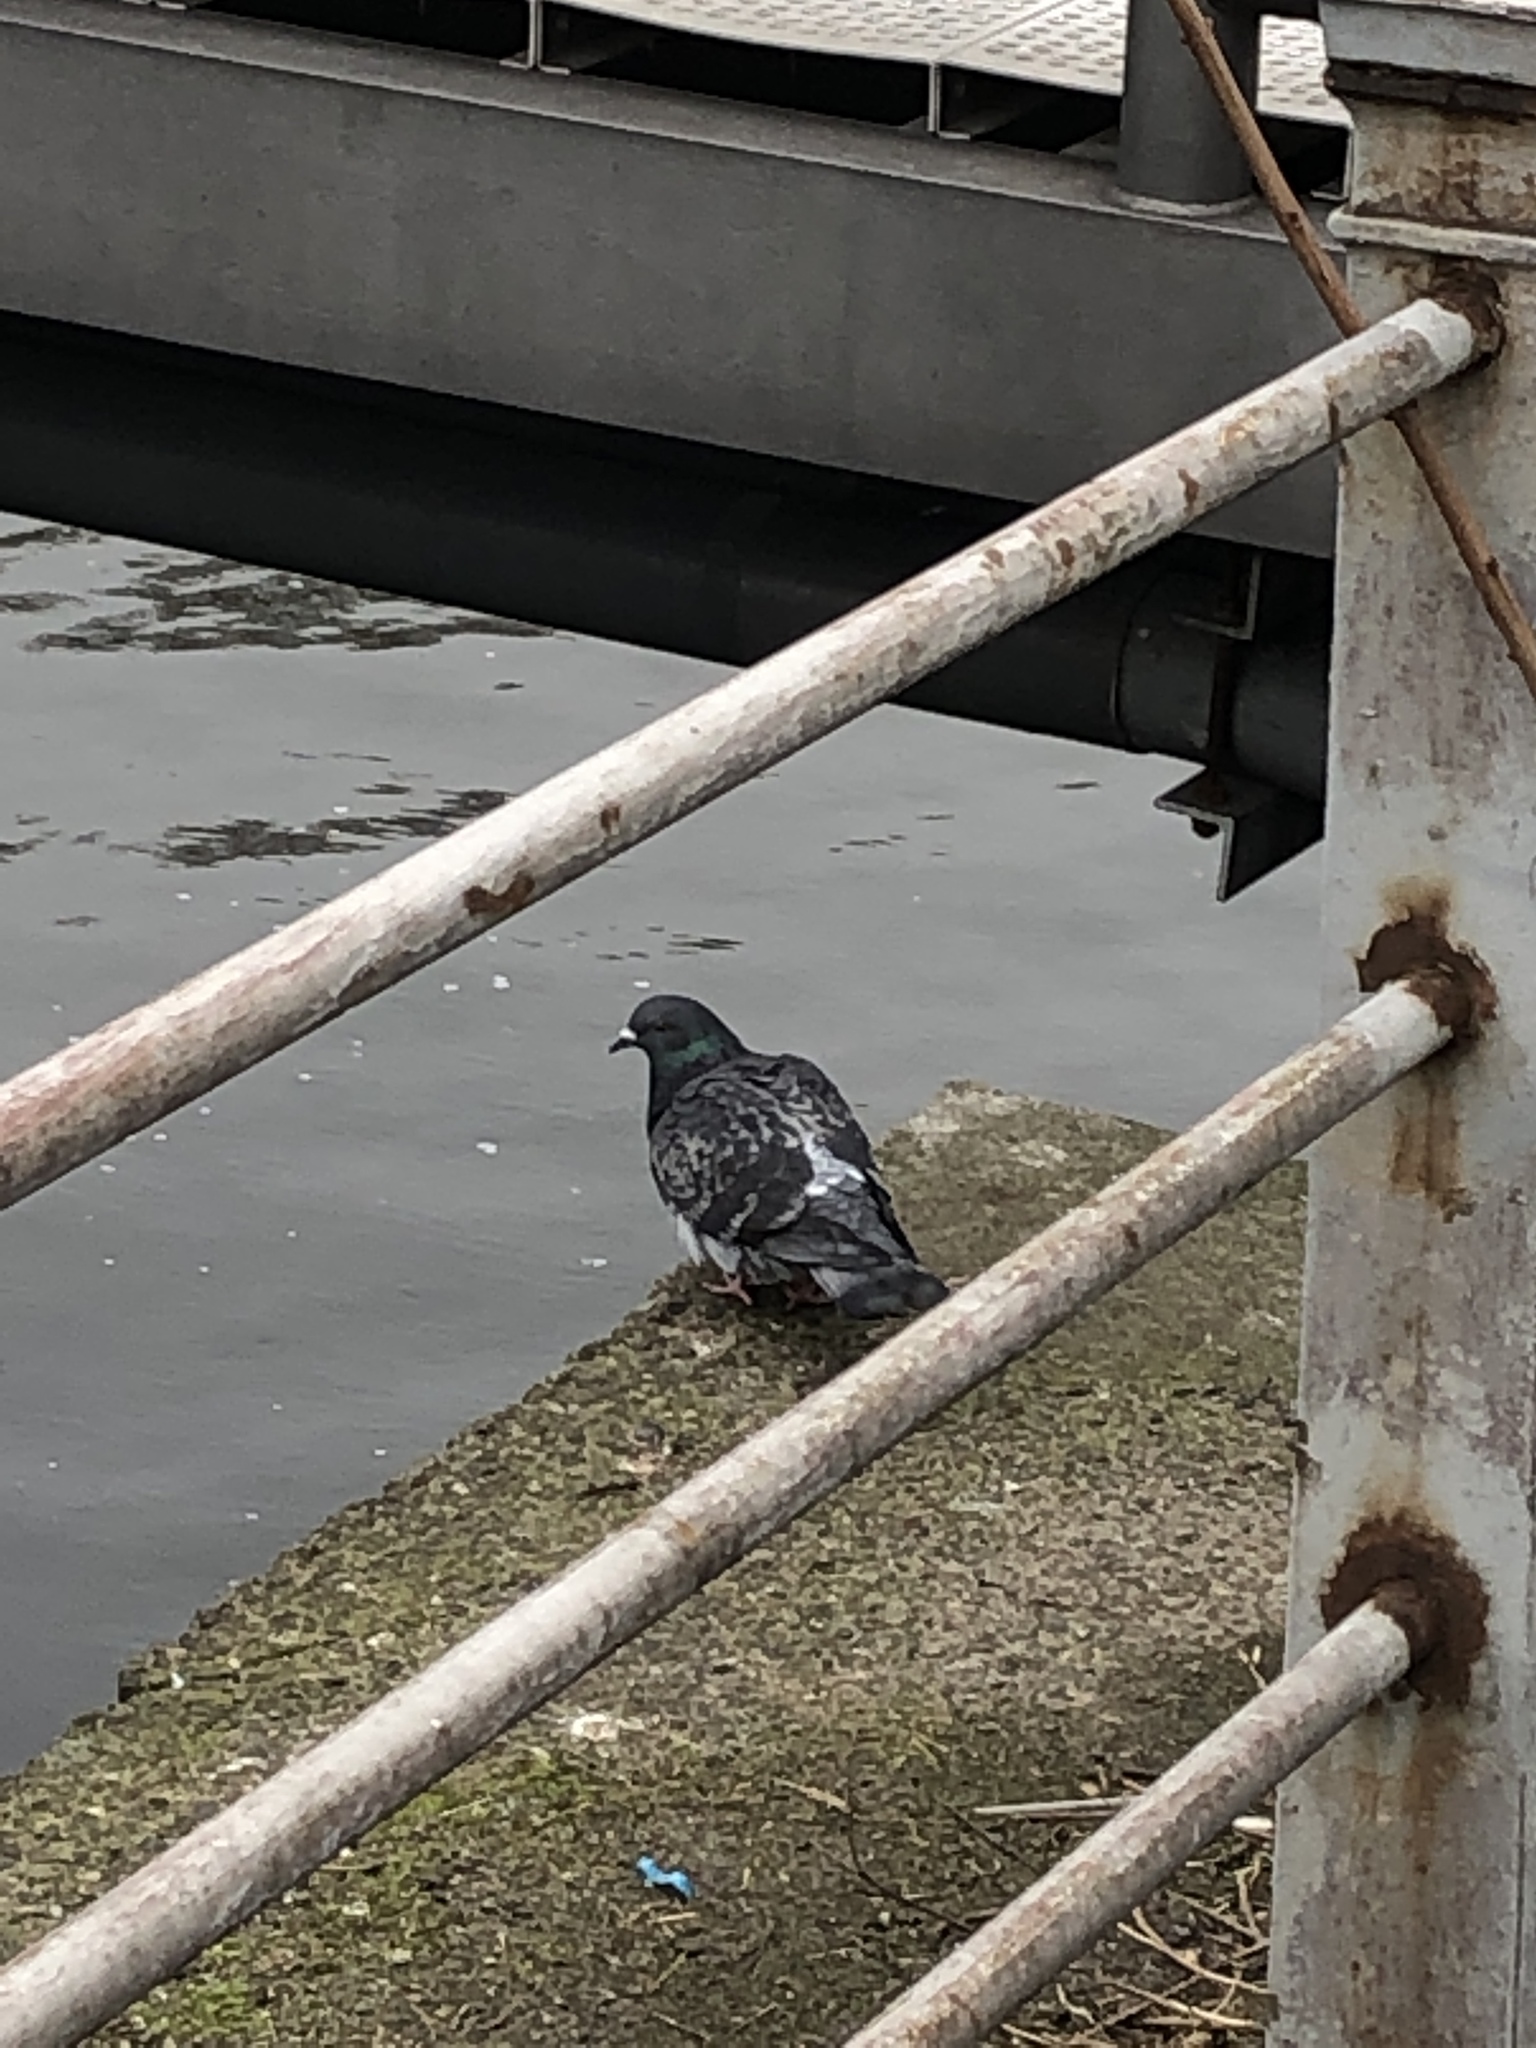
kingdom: Animalia
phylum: Chordata
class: Aves
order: Columbiformes
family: Columbidae
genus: Columba
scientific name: Columba livia
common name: Rock pigeon
